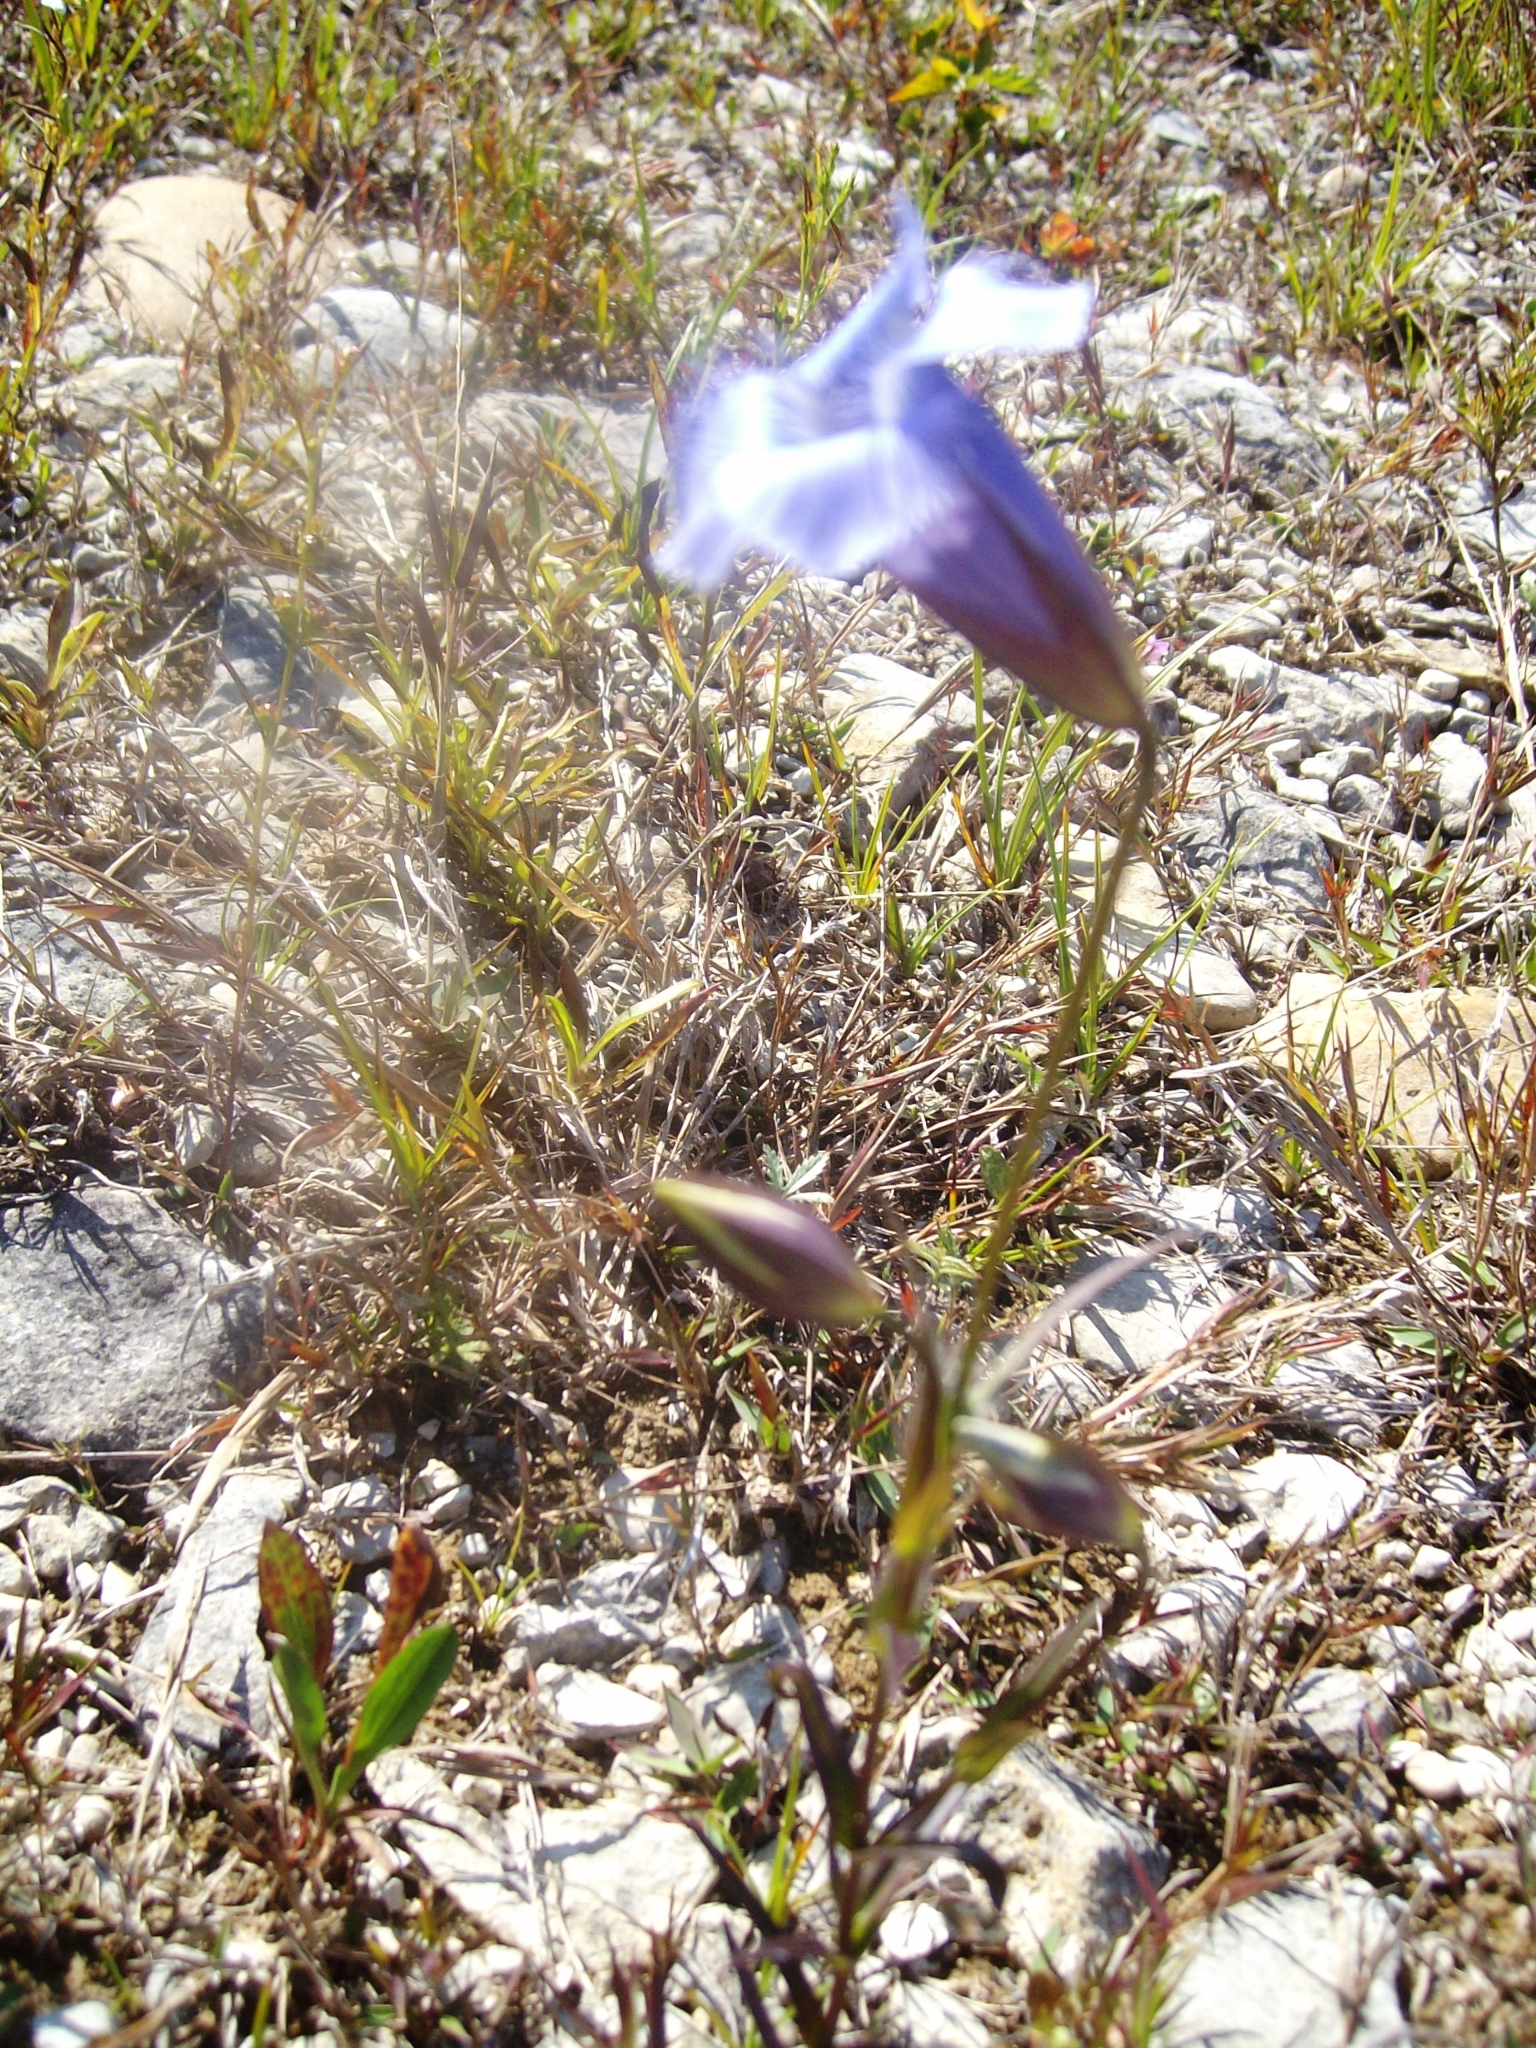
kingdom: Plantae
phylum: Tracheophyta
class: Magnoliopsida
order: Gentianales
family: Gentianaceae
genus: Gentianopsis
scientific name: Gentianopsis virgata
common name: Lesser fringed-gentian
